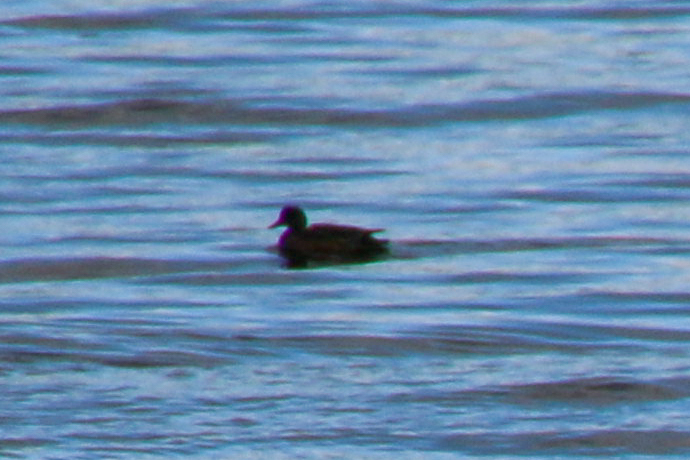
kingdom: Animalia
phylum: Chordata
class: Aves
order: Anseriformes
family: Anatidae
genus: Mareca
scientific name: Mareca strepera
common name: Gadwall
